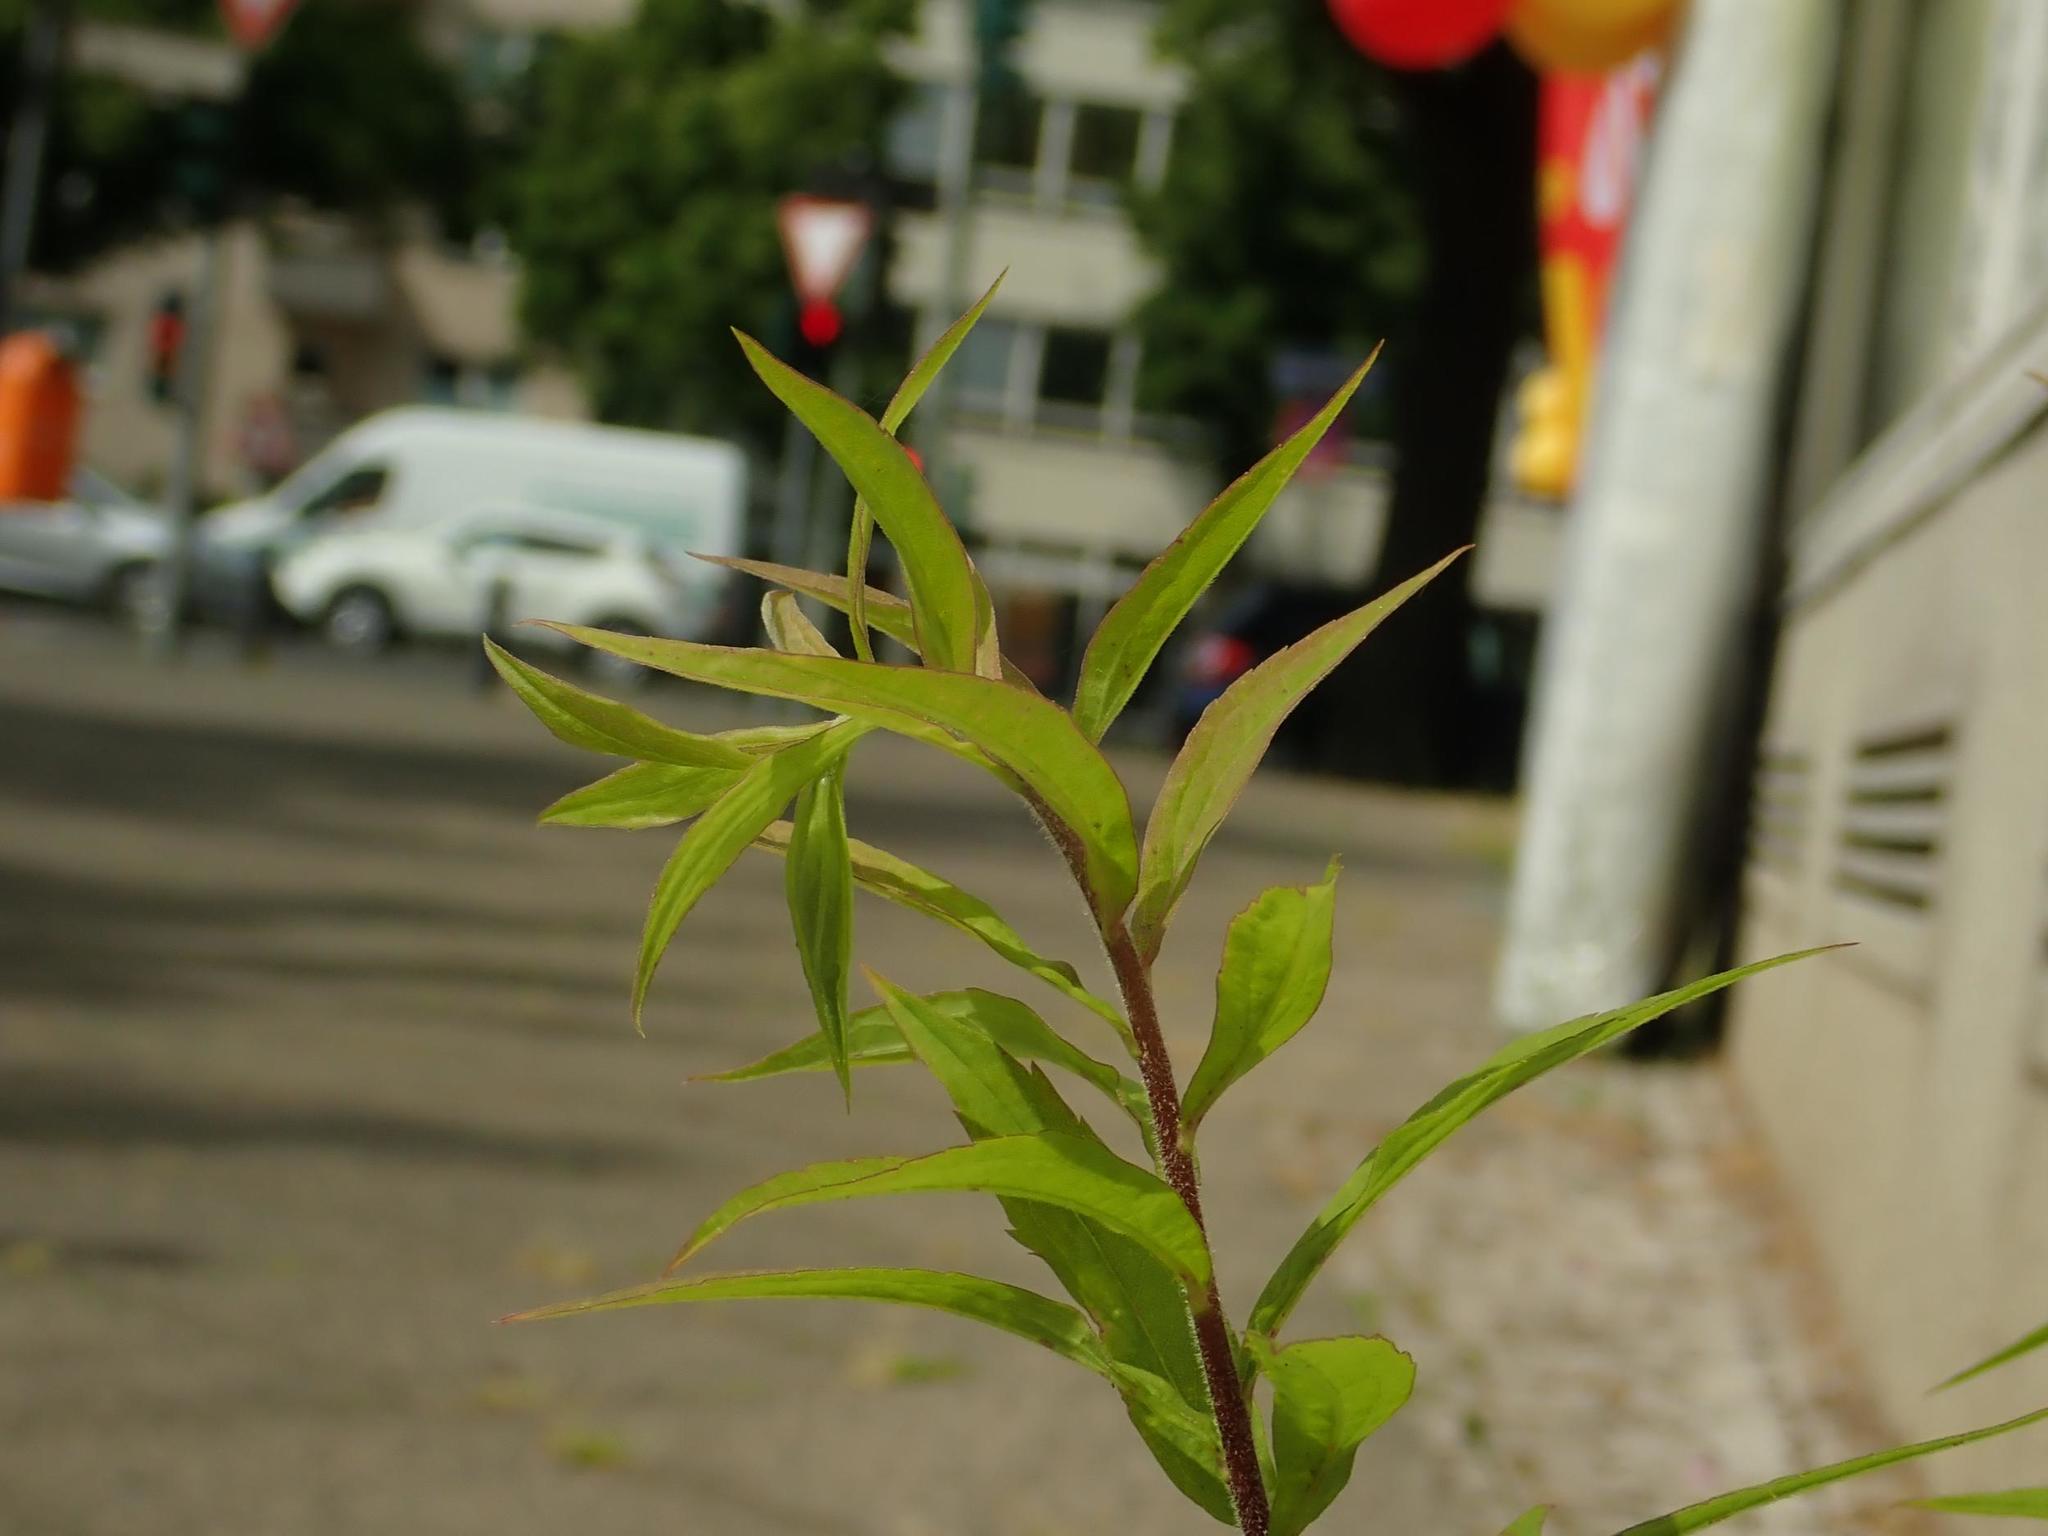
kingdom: Plantae
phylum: Tracheophyta
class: Magnoliopsida
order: Asterales
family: Asteraceae
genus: Solidago
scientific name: Solidago canadensis
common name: Canada goldenrod
